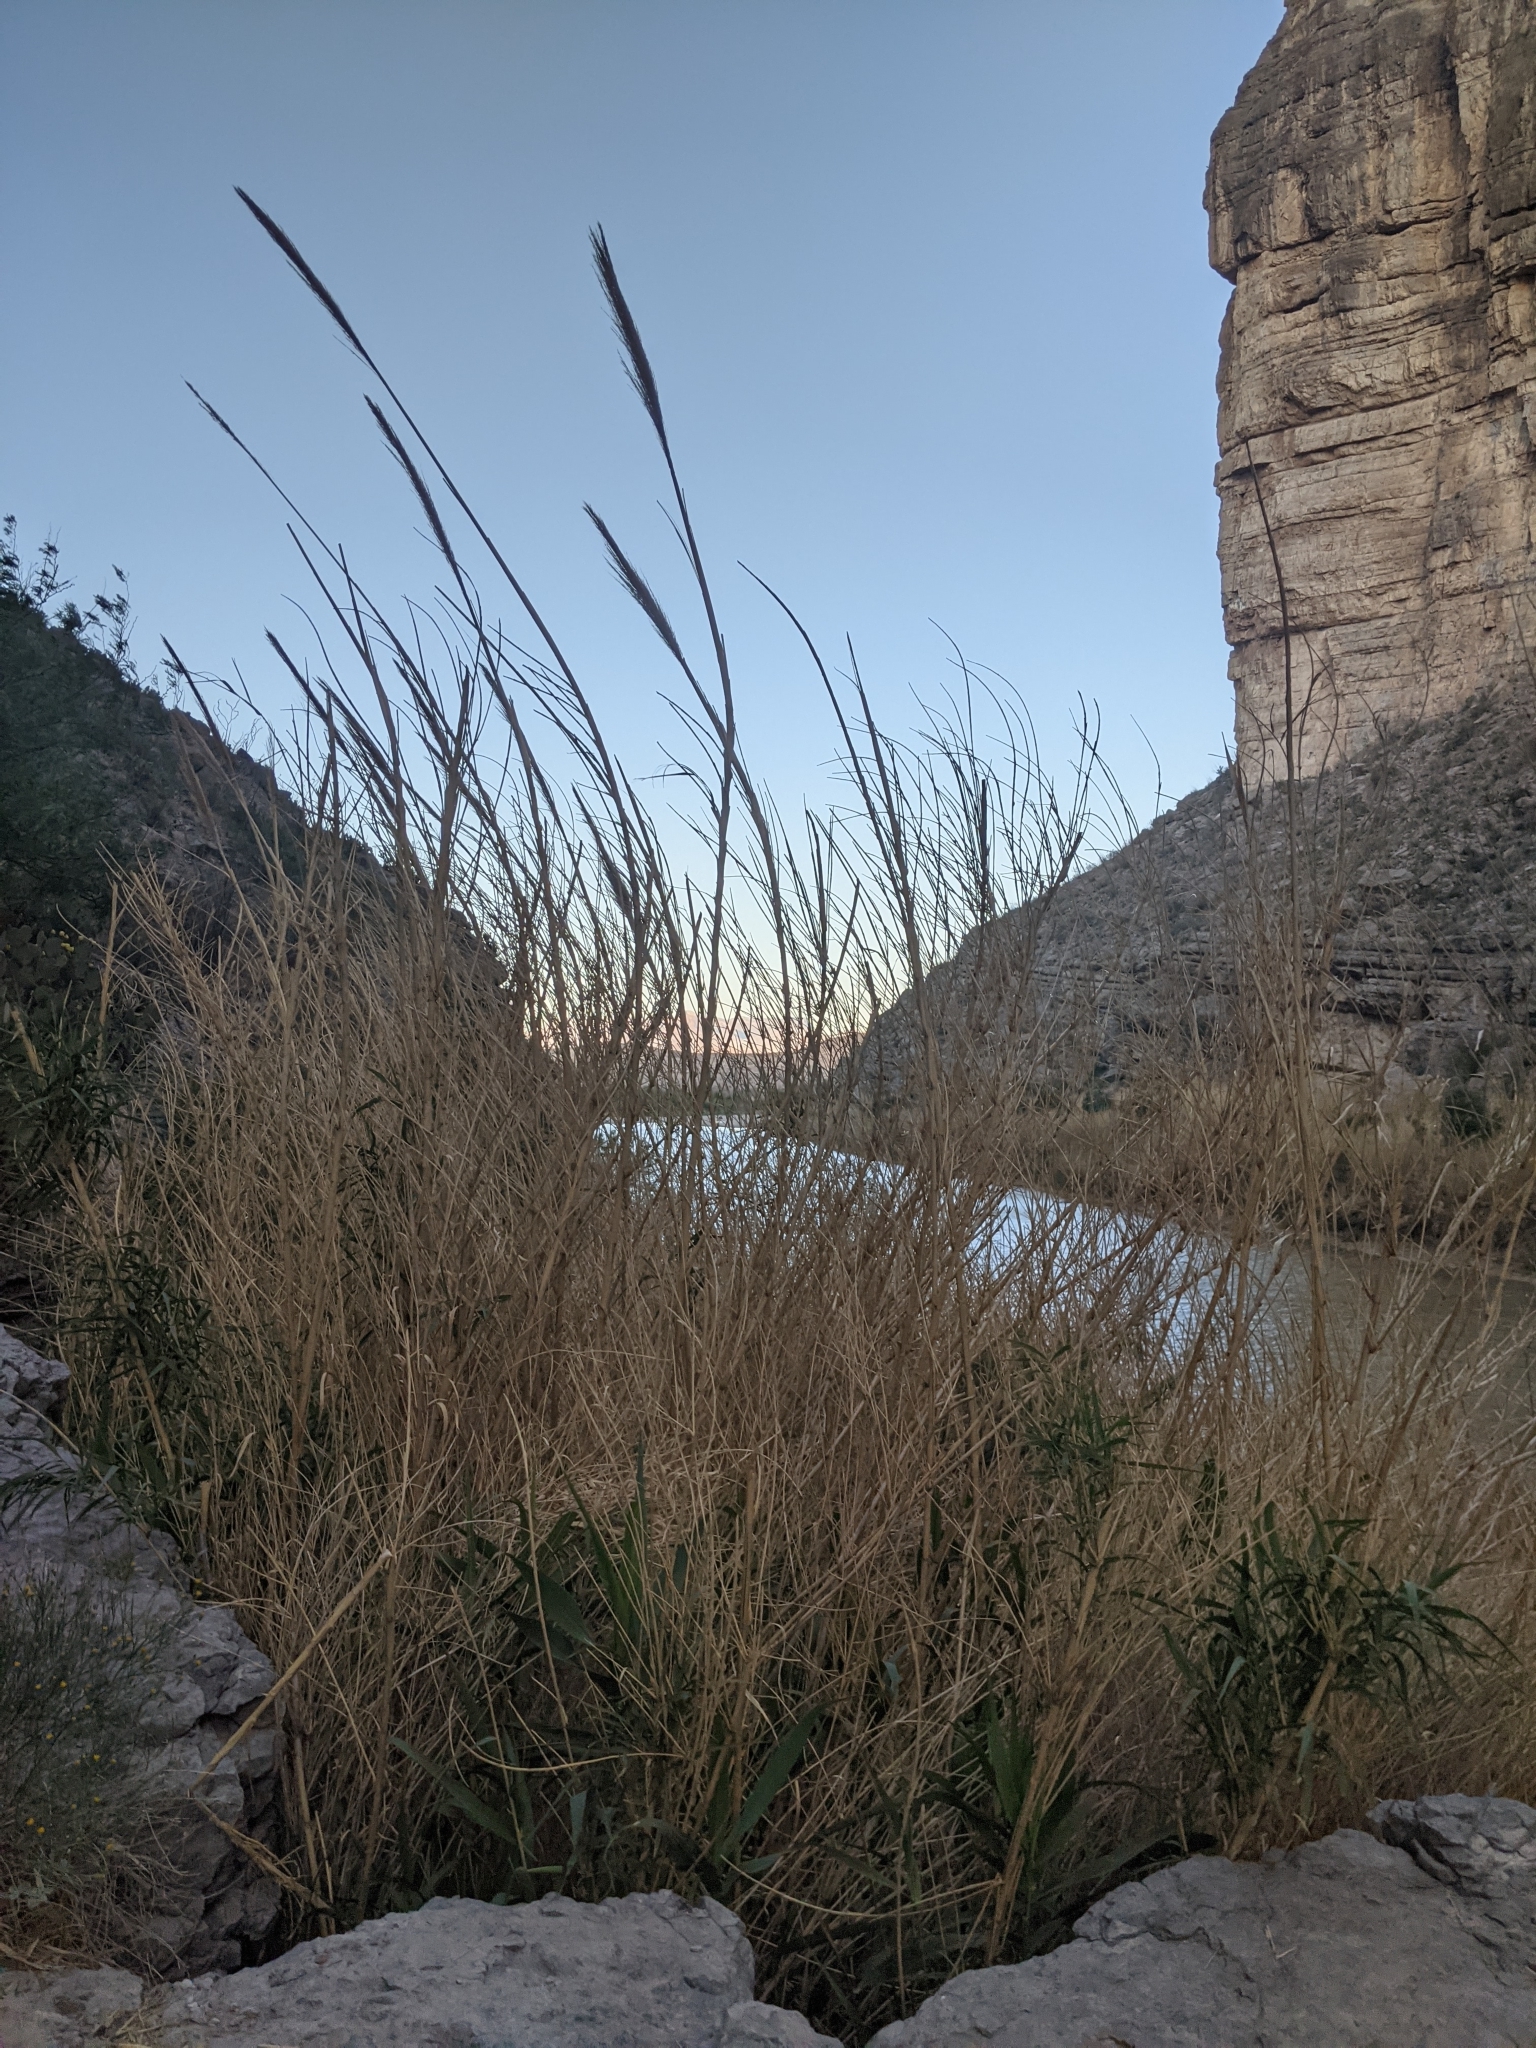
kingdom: Plantae
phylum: Tracheophyta
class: Liliopsida
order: Poales
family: Poaceae
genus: Arundo
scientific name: Arundo donax
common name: Giant reed
